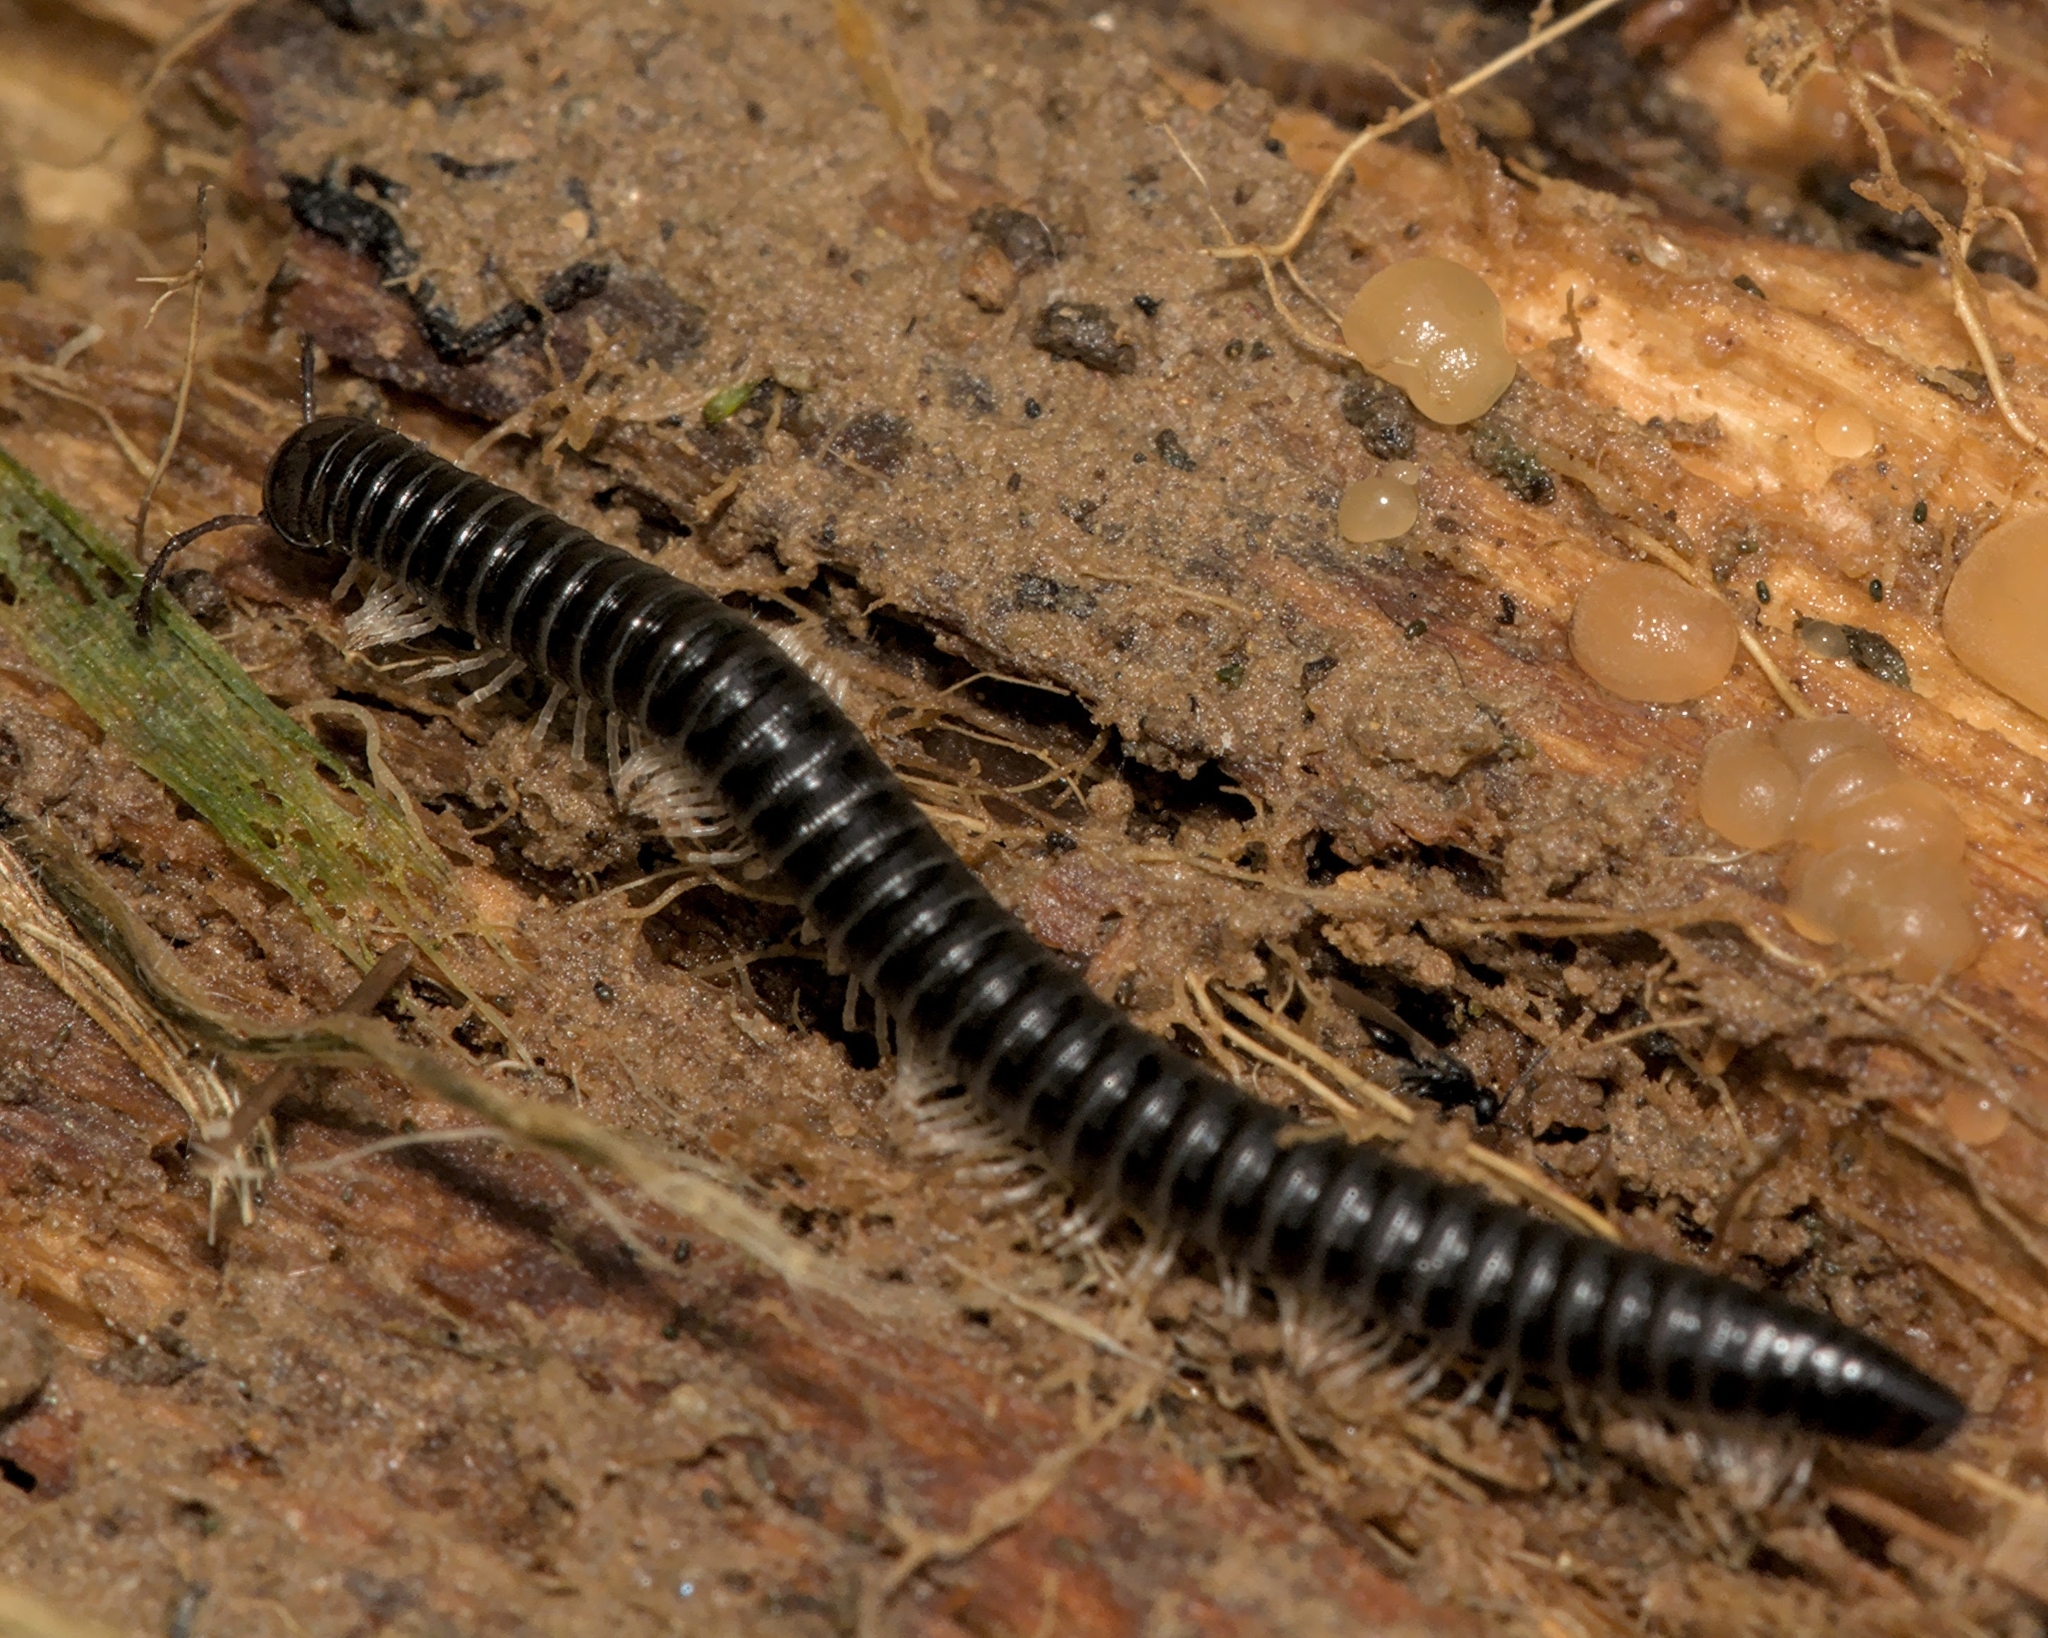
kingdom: Animalia
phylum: Arthropoda
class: Diplopoda
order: Julida
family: Julidae
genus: Tachypodoiulus
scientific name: Tachypodoiulus niger
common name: White-legged snake millipede
